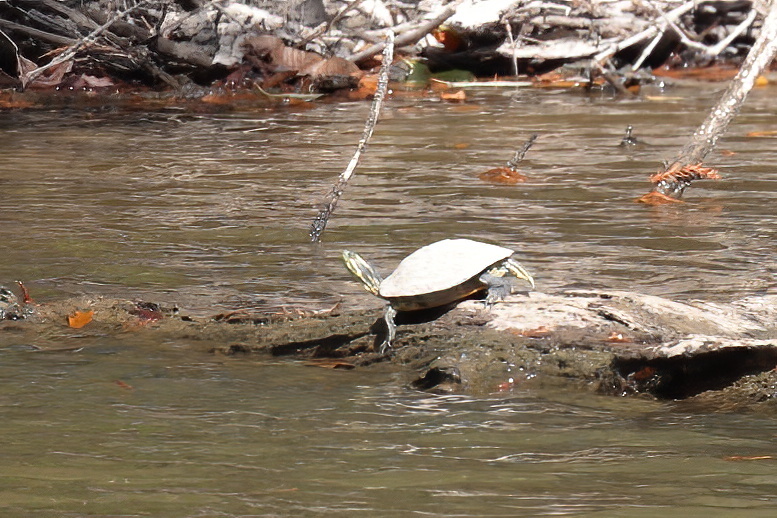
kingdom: Animalia
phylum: Chordata
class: Testudines
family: Emydidae
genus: Trachemys
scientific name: Trachemys scripta
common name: Slider
